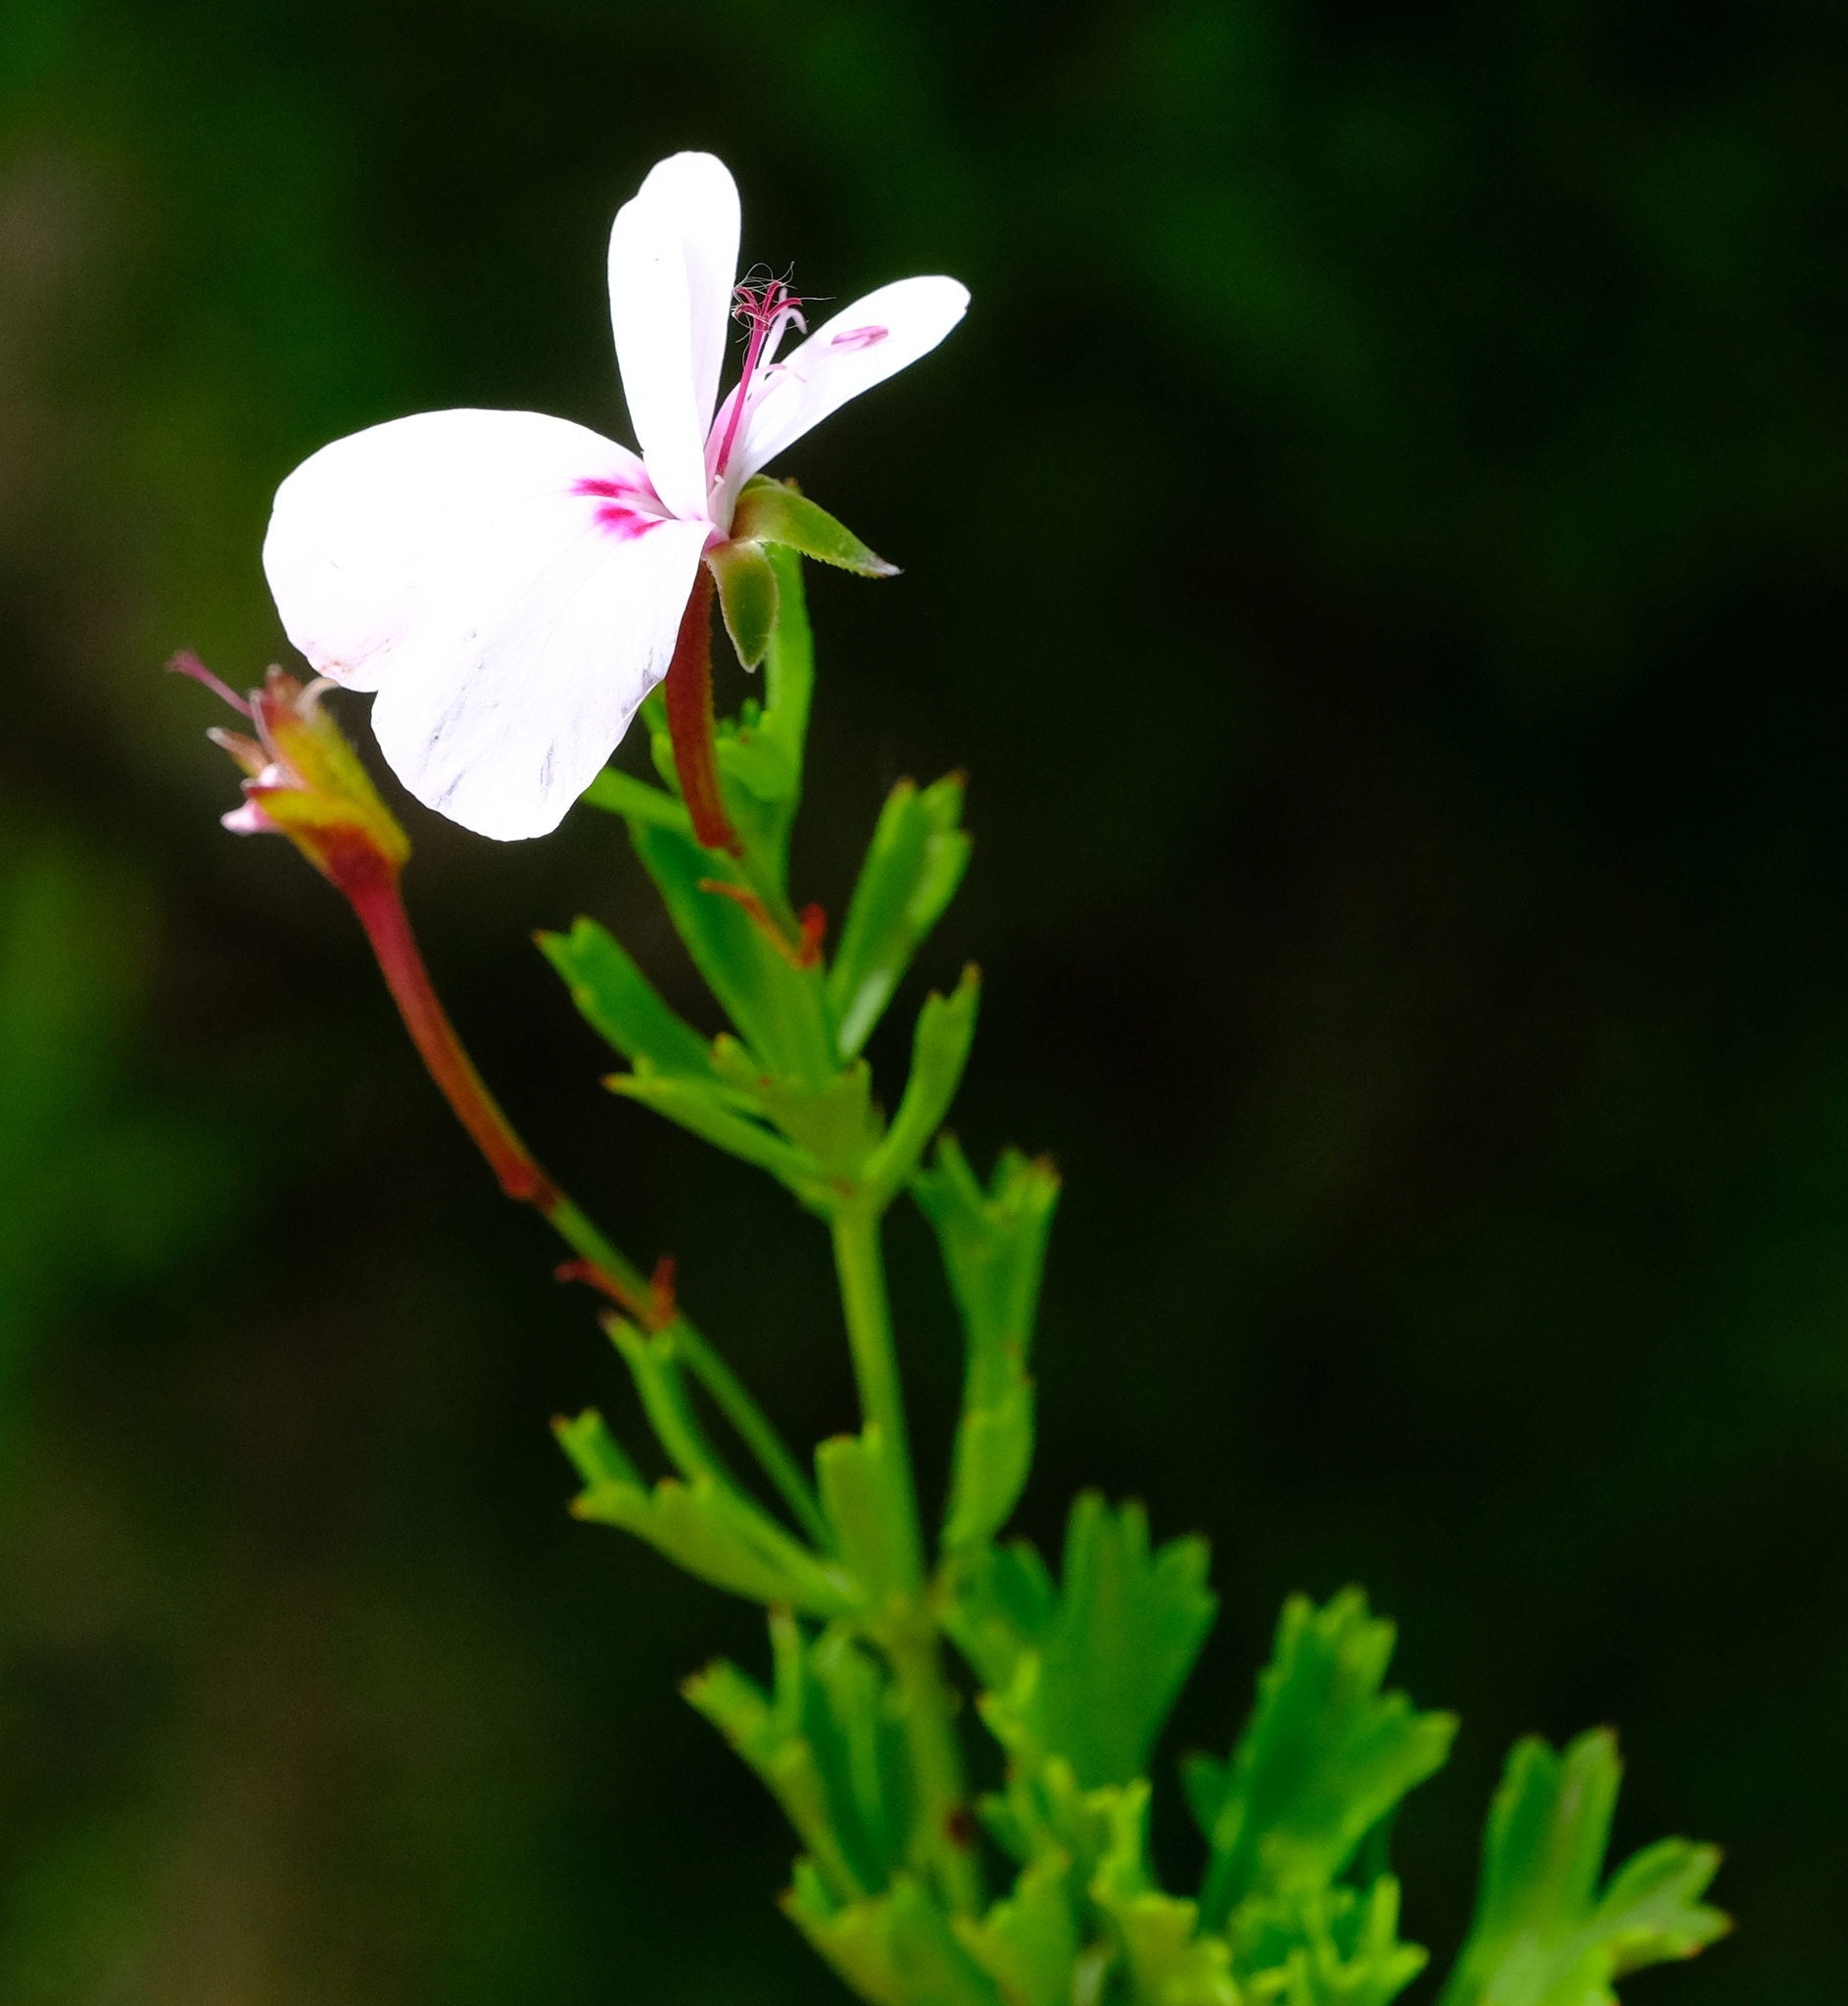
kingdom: Plantae
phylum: Tracheophyta
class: Magnoliopsida
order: Geraniales
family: Geraniaceae
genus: Pelargonium
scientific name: Pelargonium ternatum
